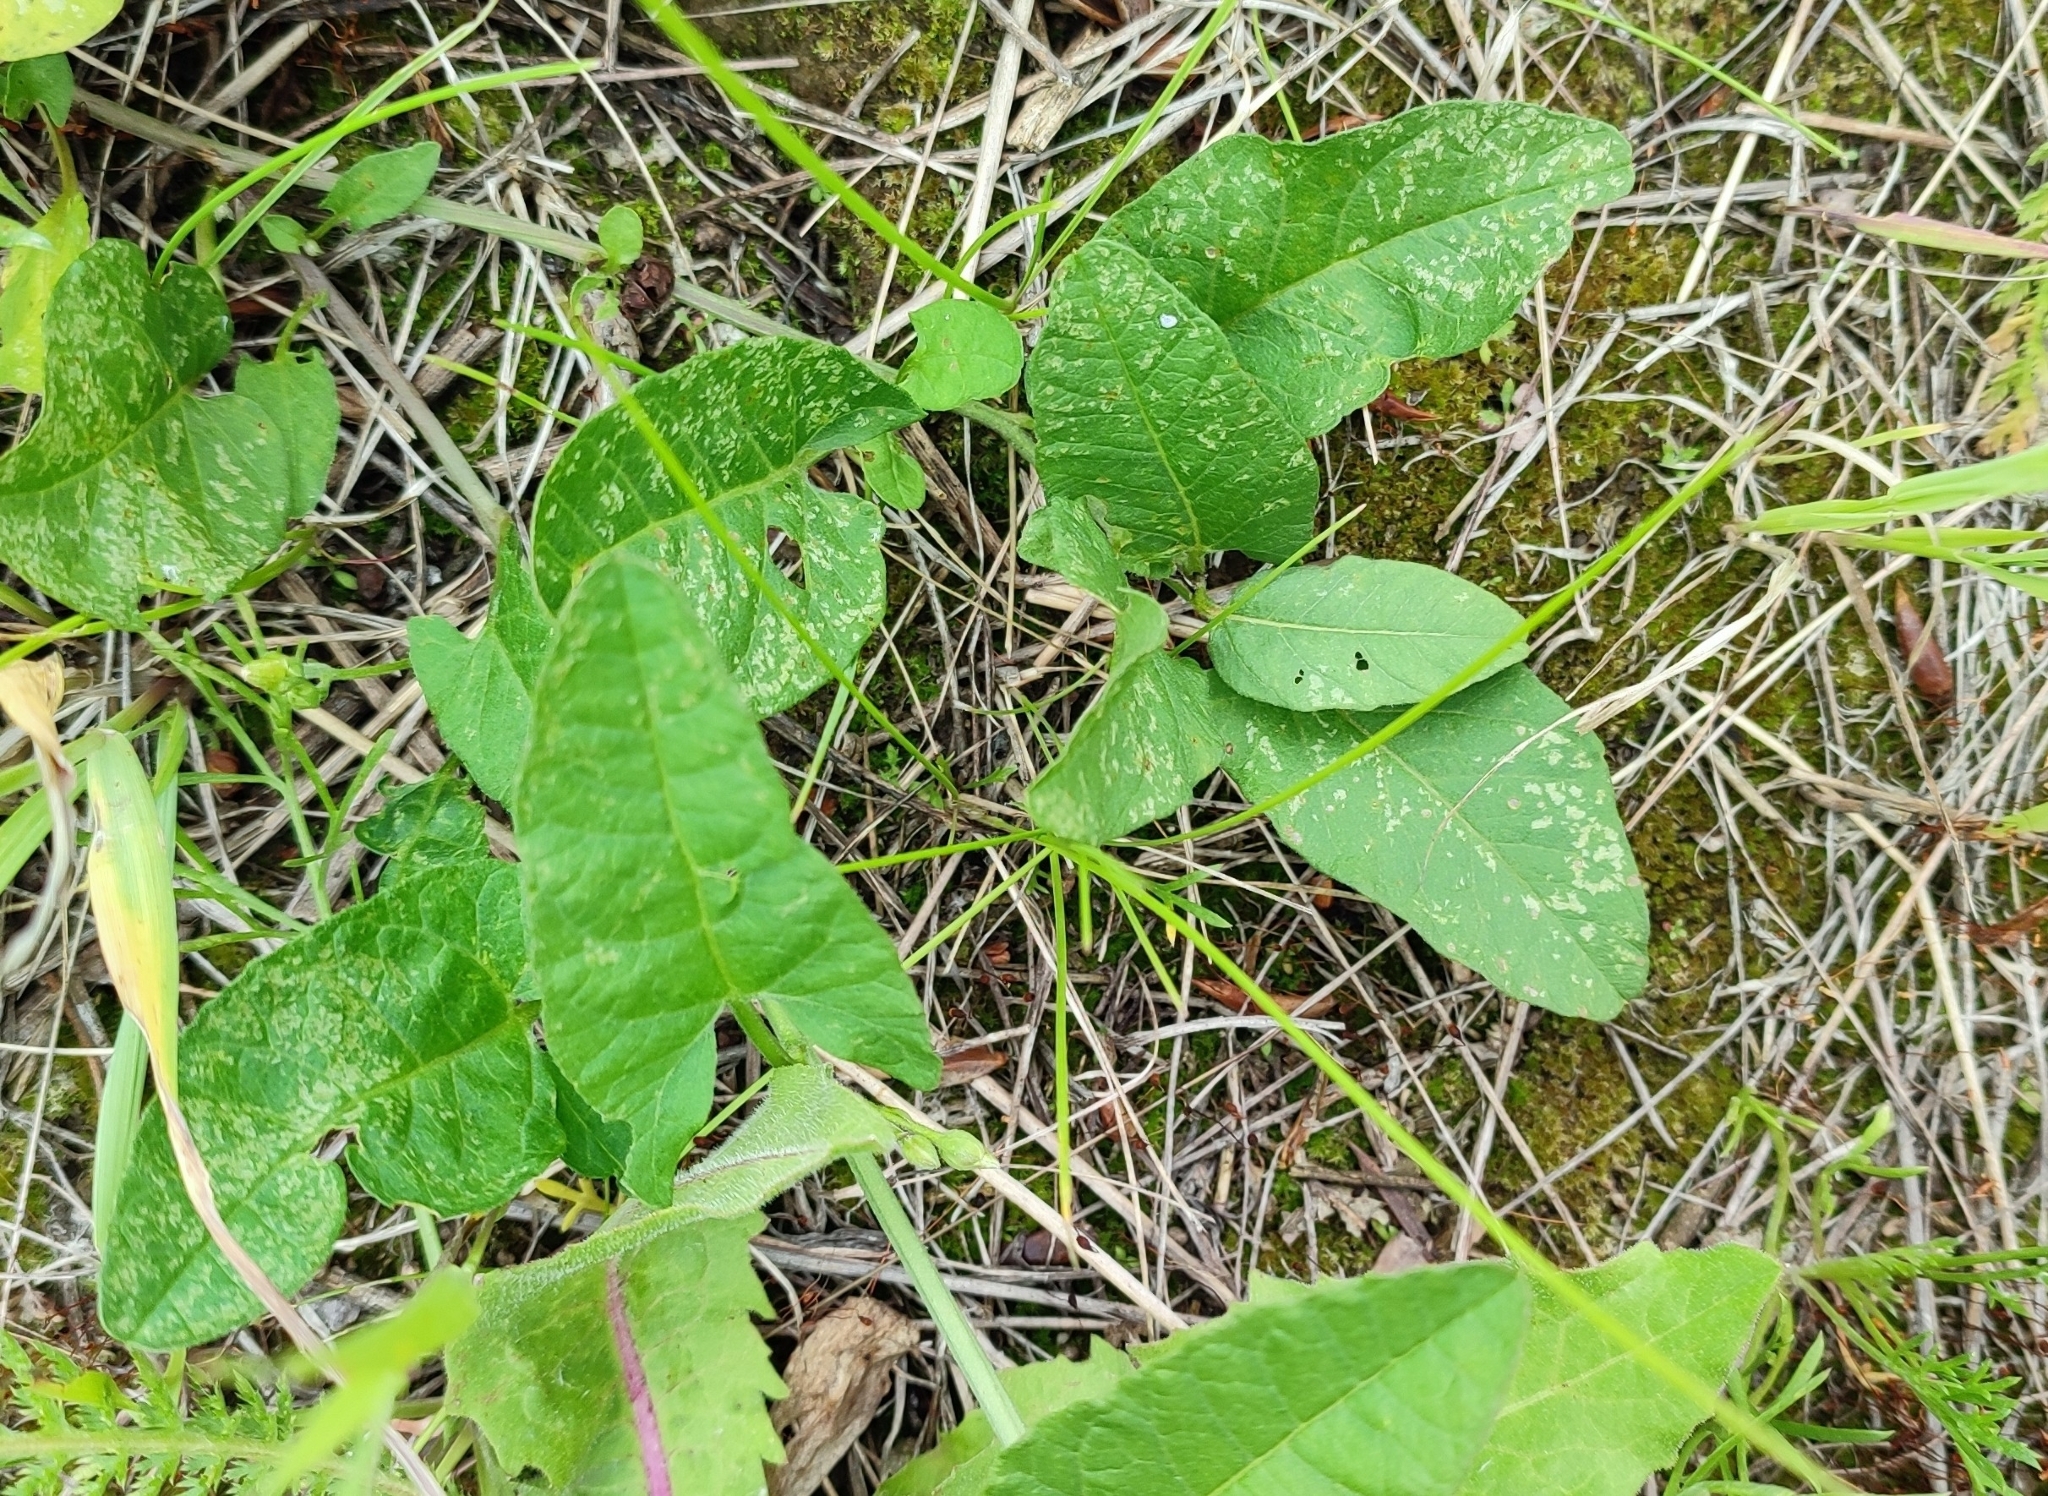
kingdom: Plantae
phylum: Tracheophyta
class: Magnoliopsida
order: Asterales
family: Asteraceae
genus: Arctium
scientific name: Arctium tomentosum
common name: Woolly burdock
